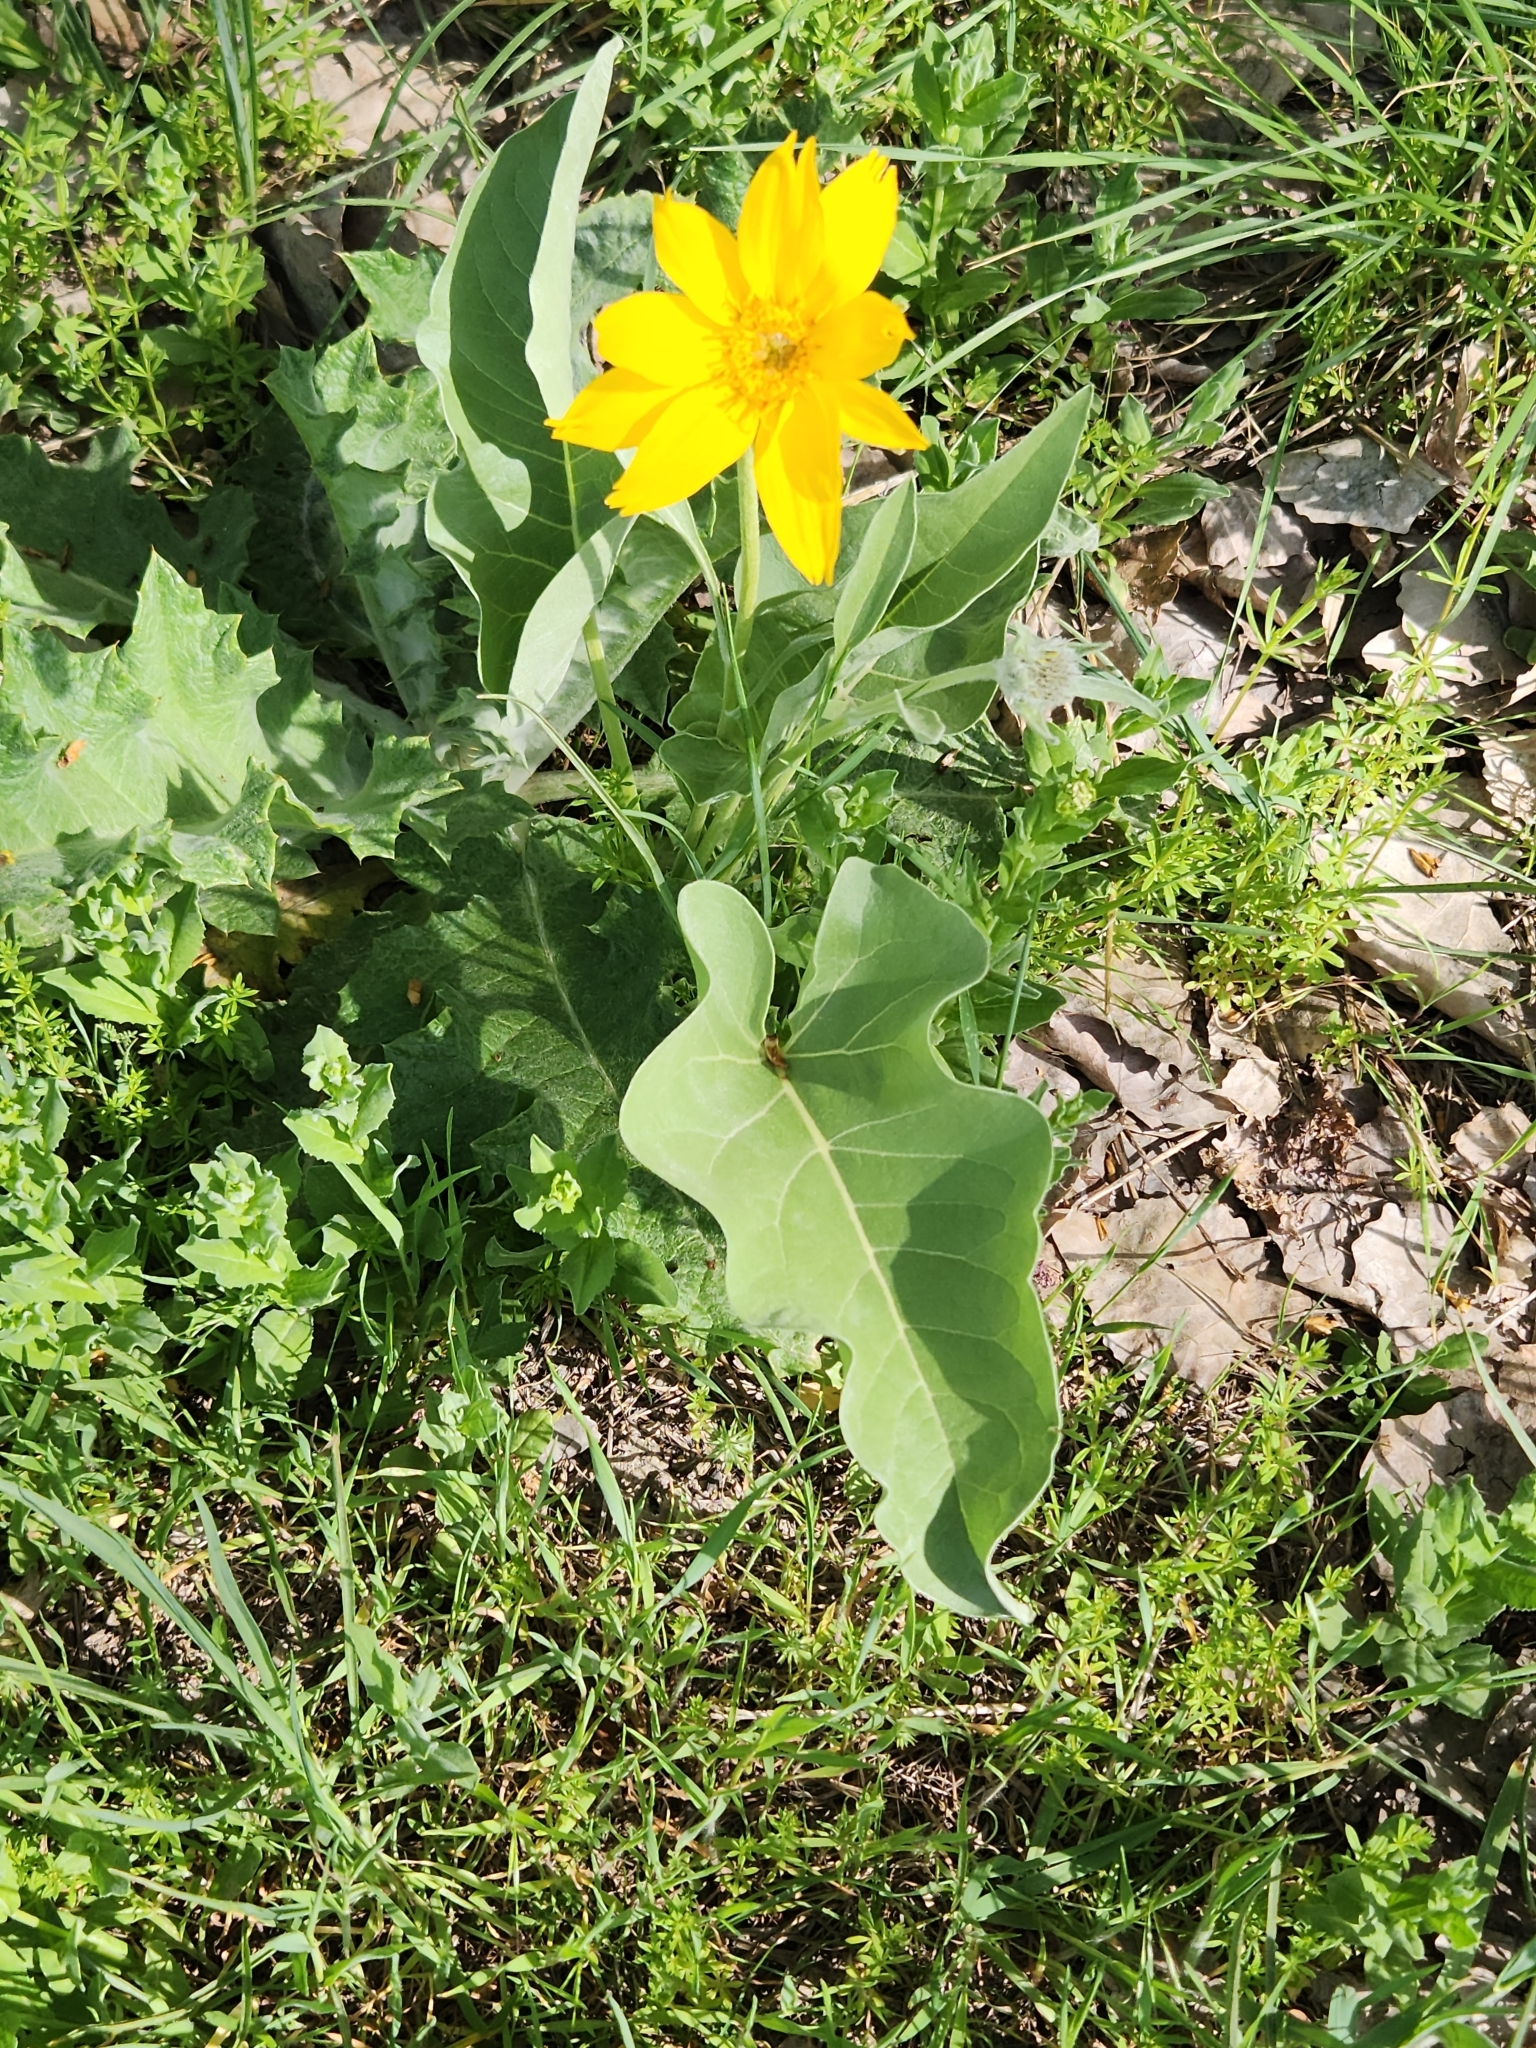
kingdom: Plantae
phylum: Tracheophyta
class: Magnoliopsida
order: Asterales
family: Asteraceae
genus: Wyethia
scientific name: Wyethia sagittata
